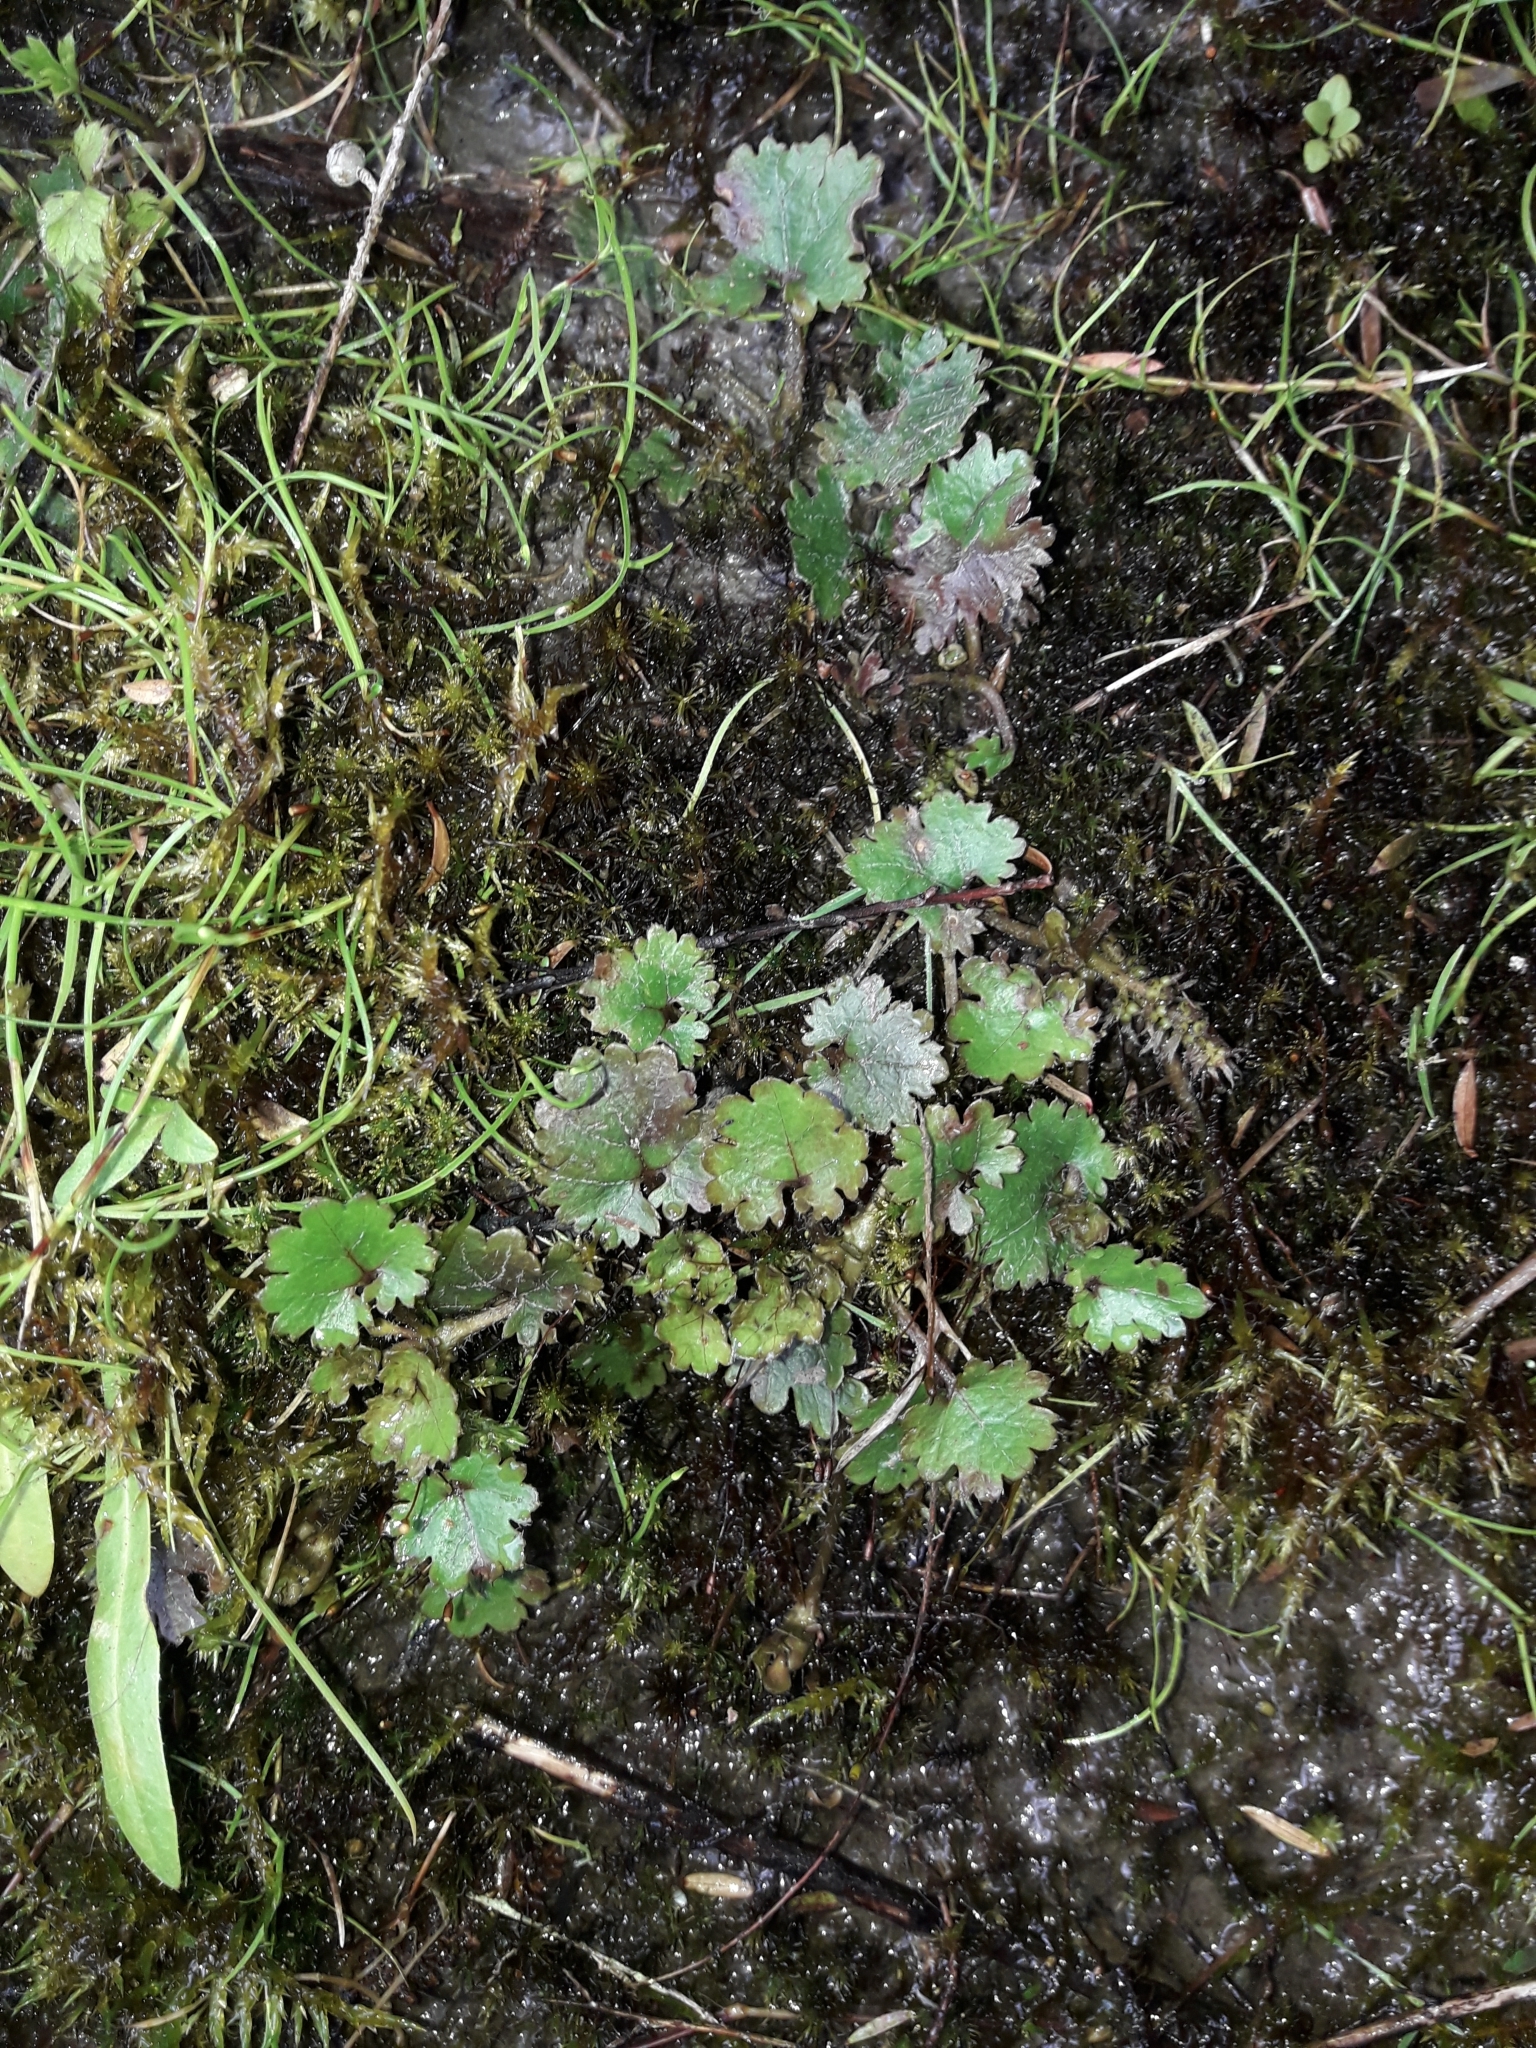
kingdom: Plantae
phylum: Tracheophyta
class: Magnoliopsida
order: Gunnerales
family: Gunneraceae
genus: Gunnera
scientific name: Gunnera monoica
